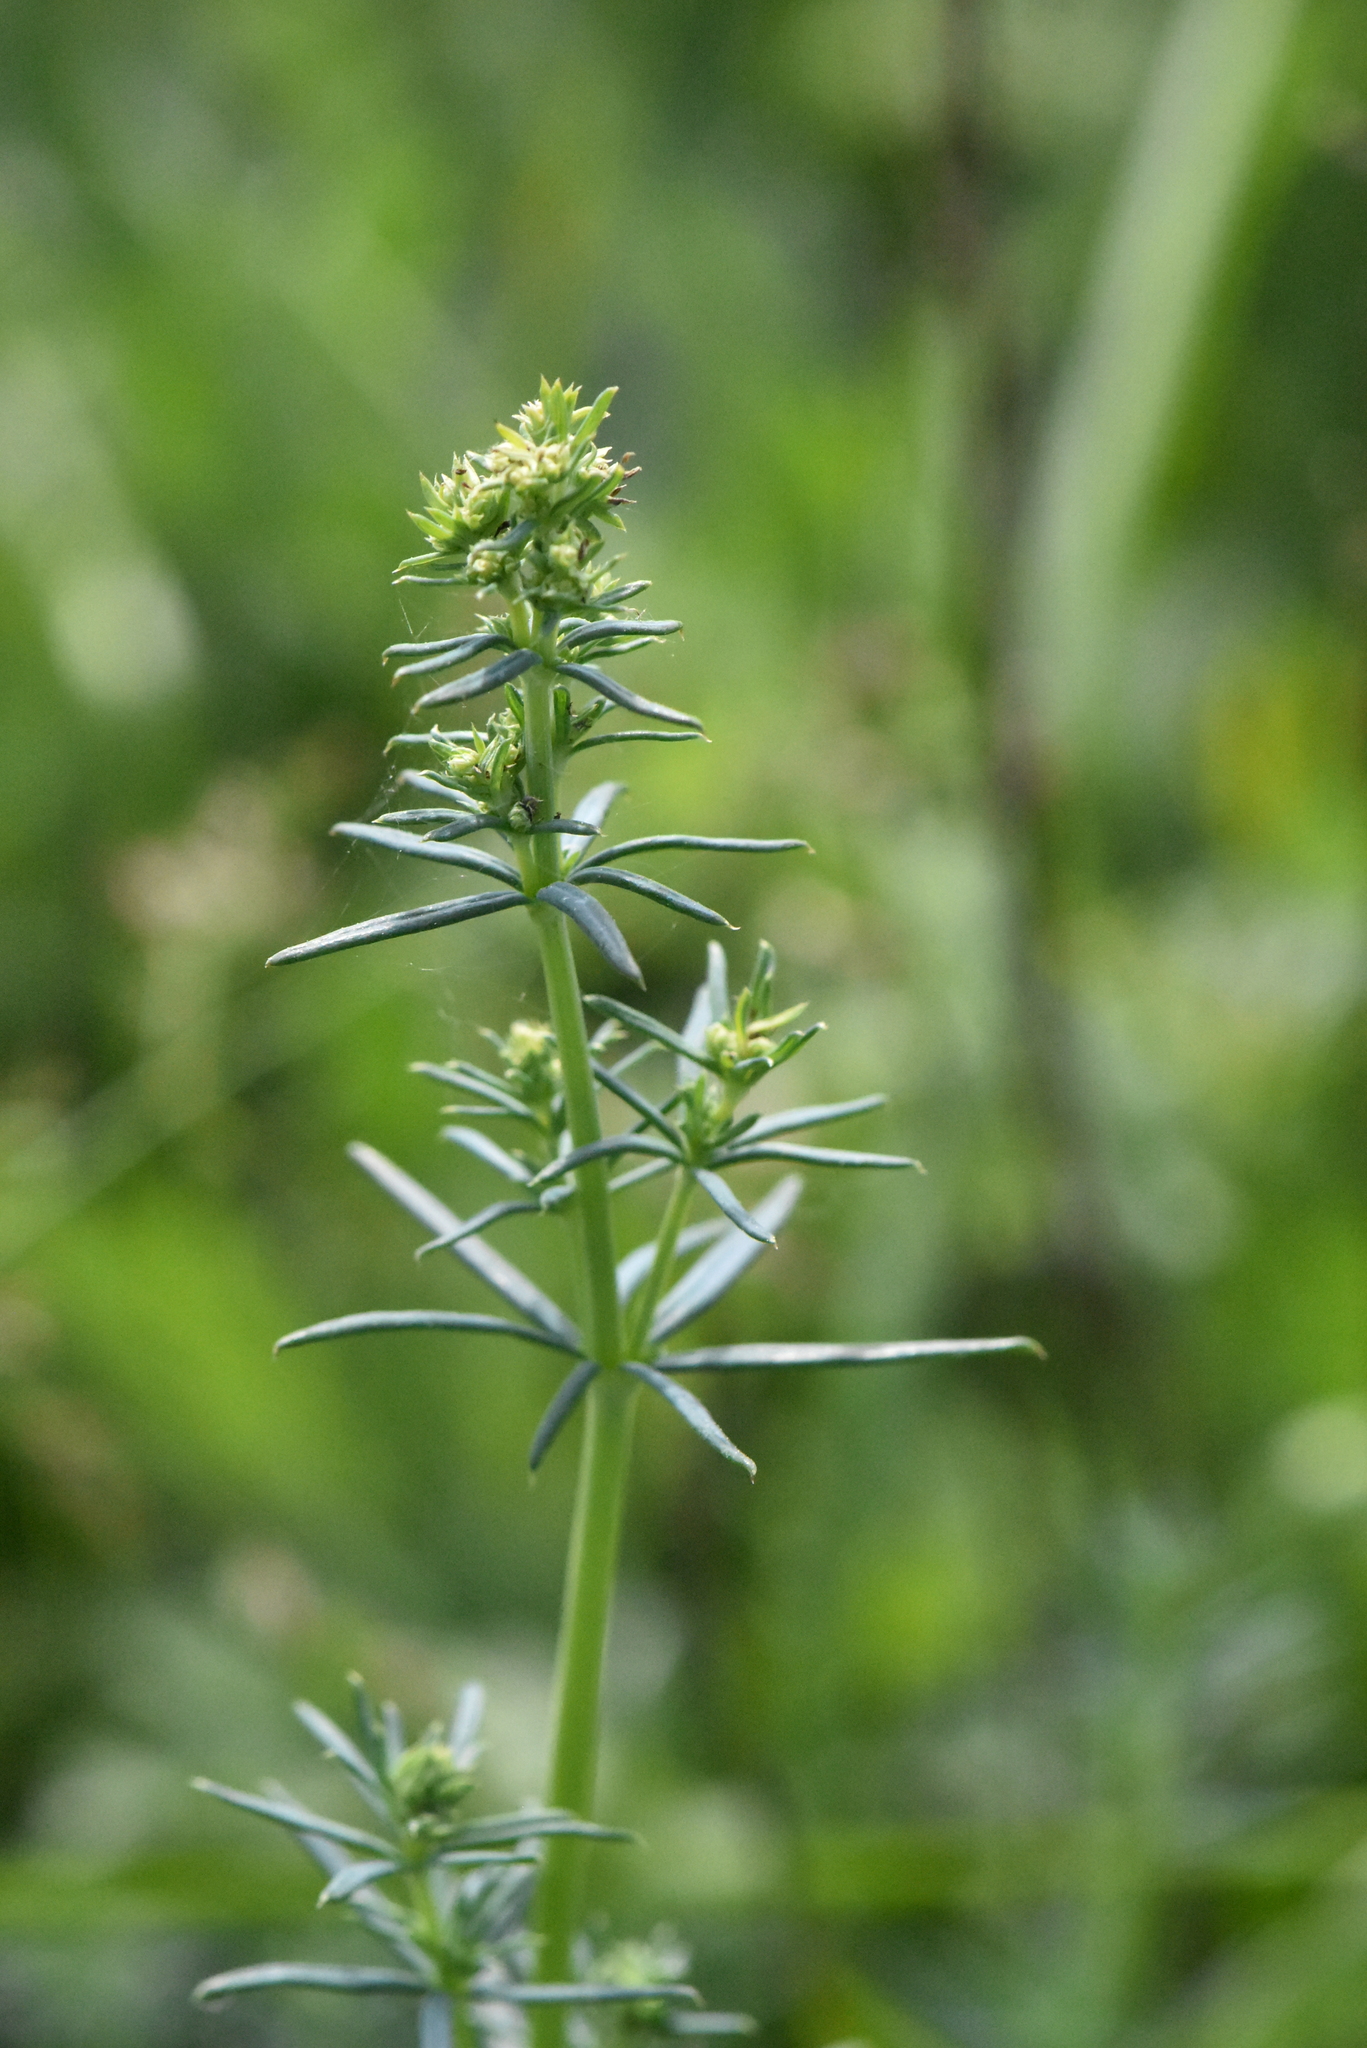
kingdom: Plantae
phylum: Tracheophyta
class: Magnoliopsida
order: Gentianales
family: Rubiaceae
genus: Galium
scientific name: Galium verum
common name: Lady's bedstraw
